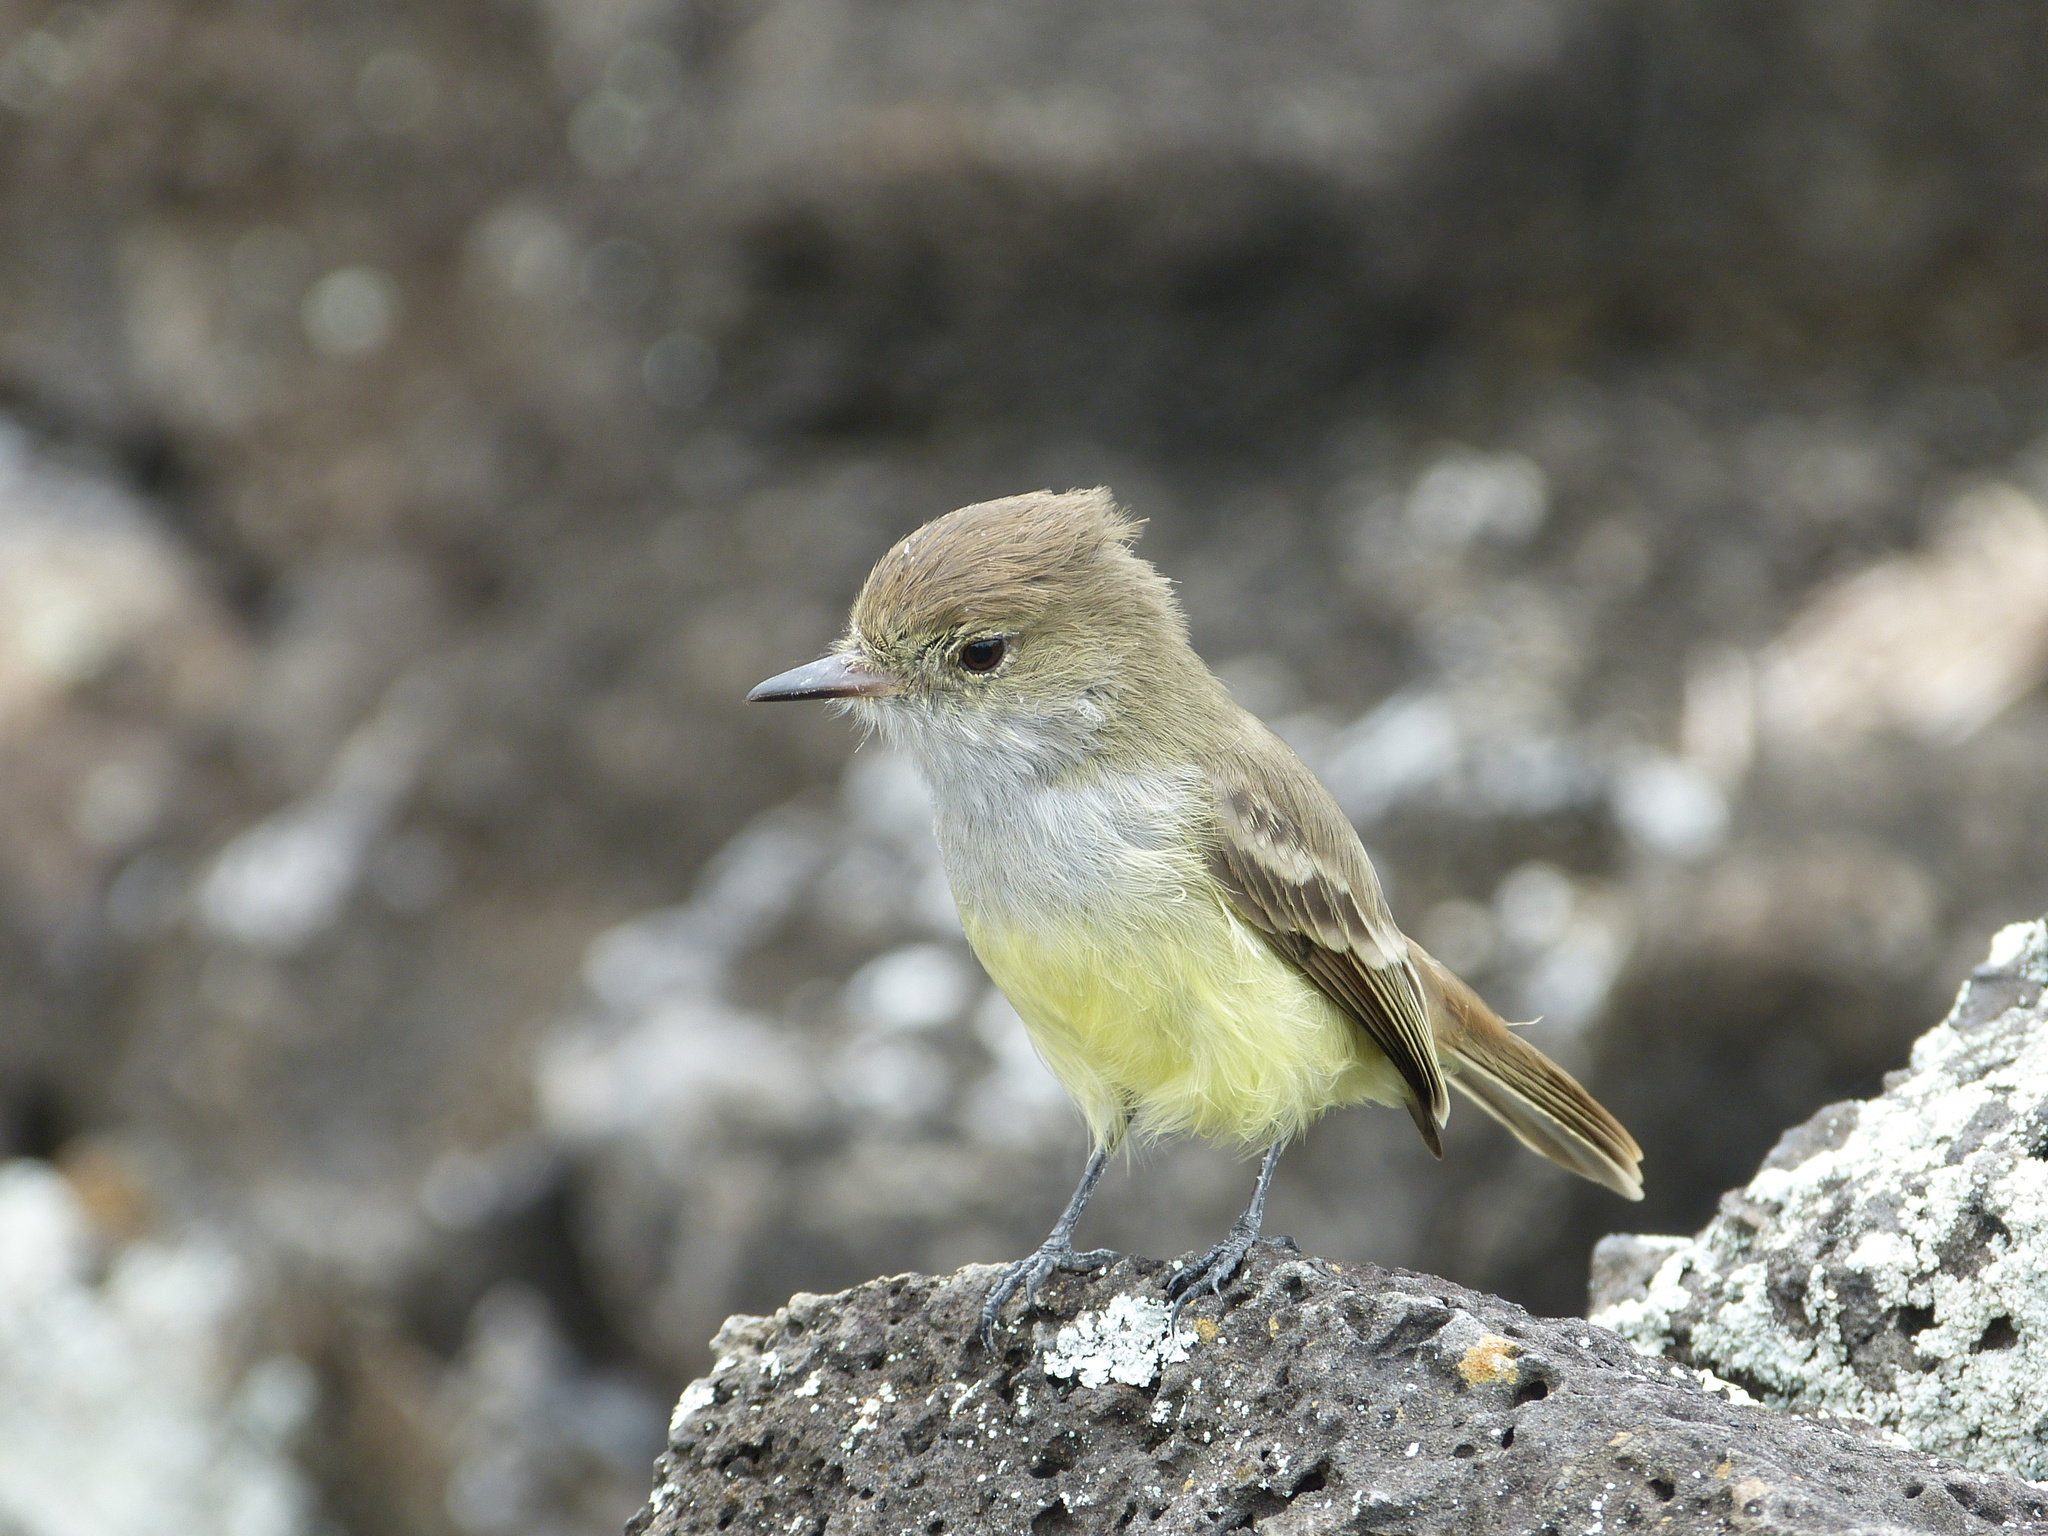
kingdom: Animalia
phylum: Chordata
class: Aves
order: Passeriformes
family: Tyrannidae
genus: Myiarchus
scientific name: Myiarchus magnirostris
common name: Galapagos flycatcher
